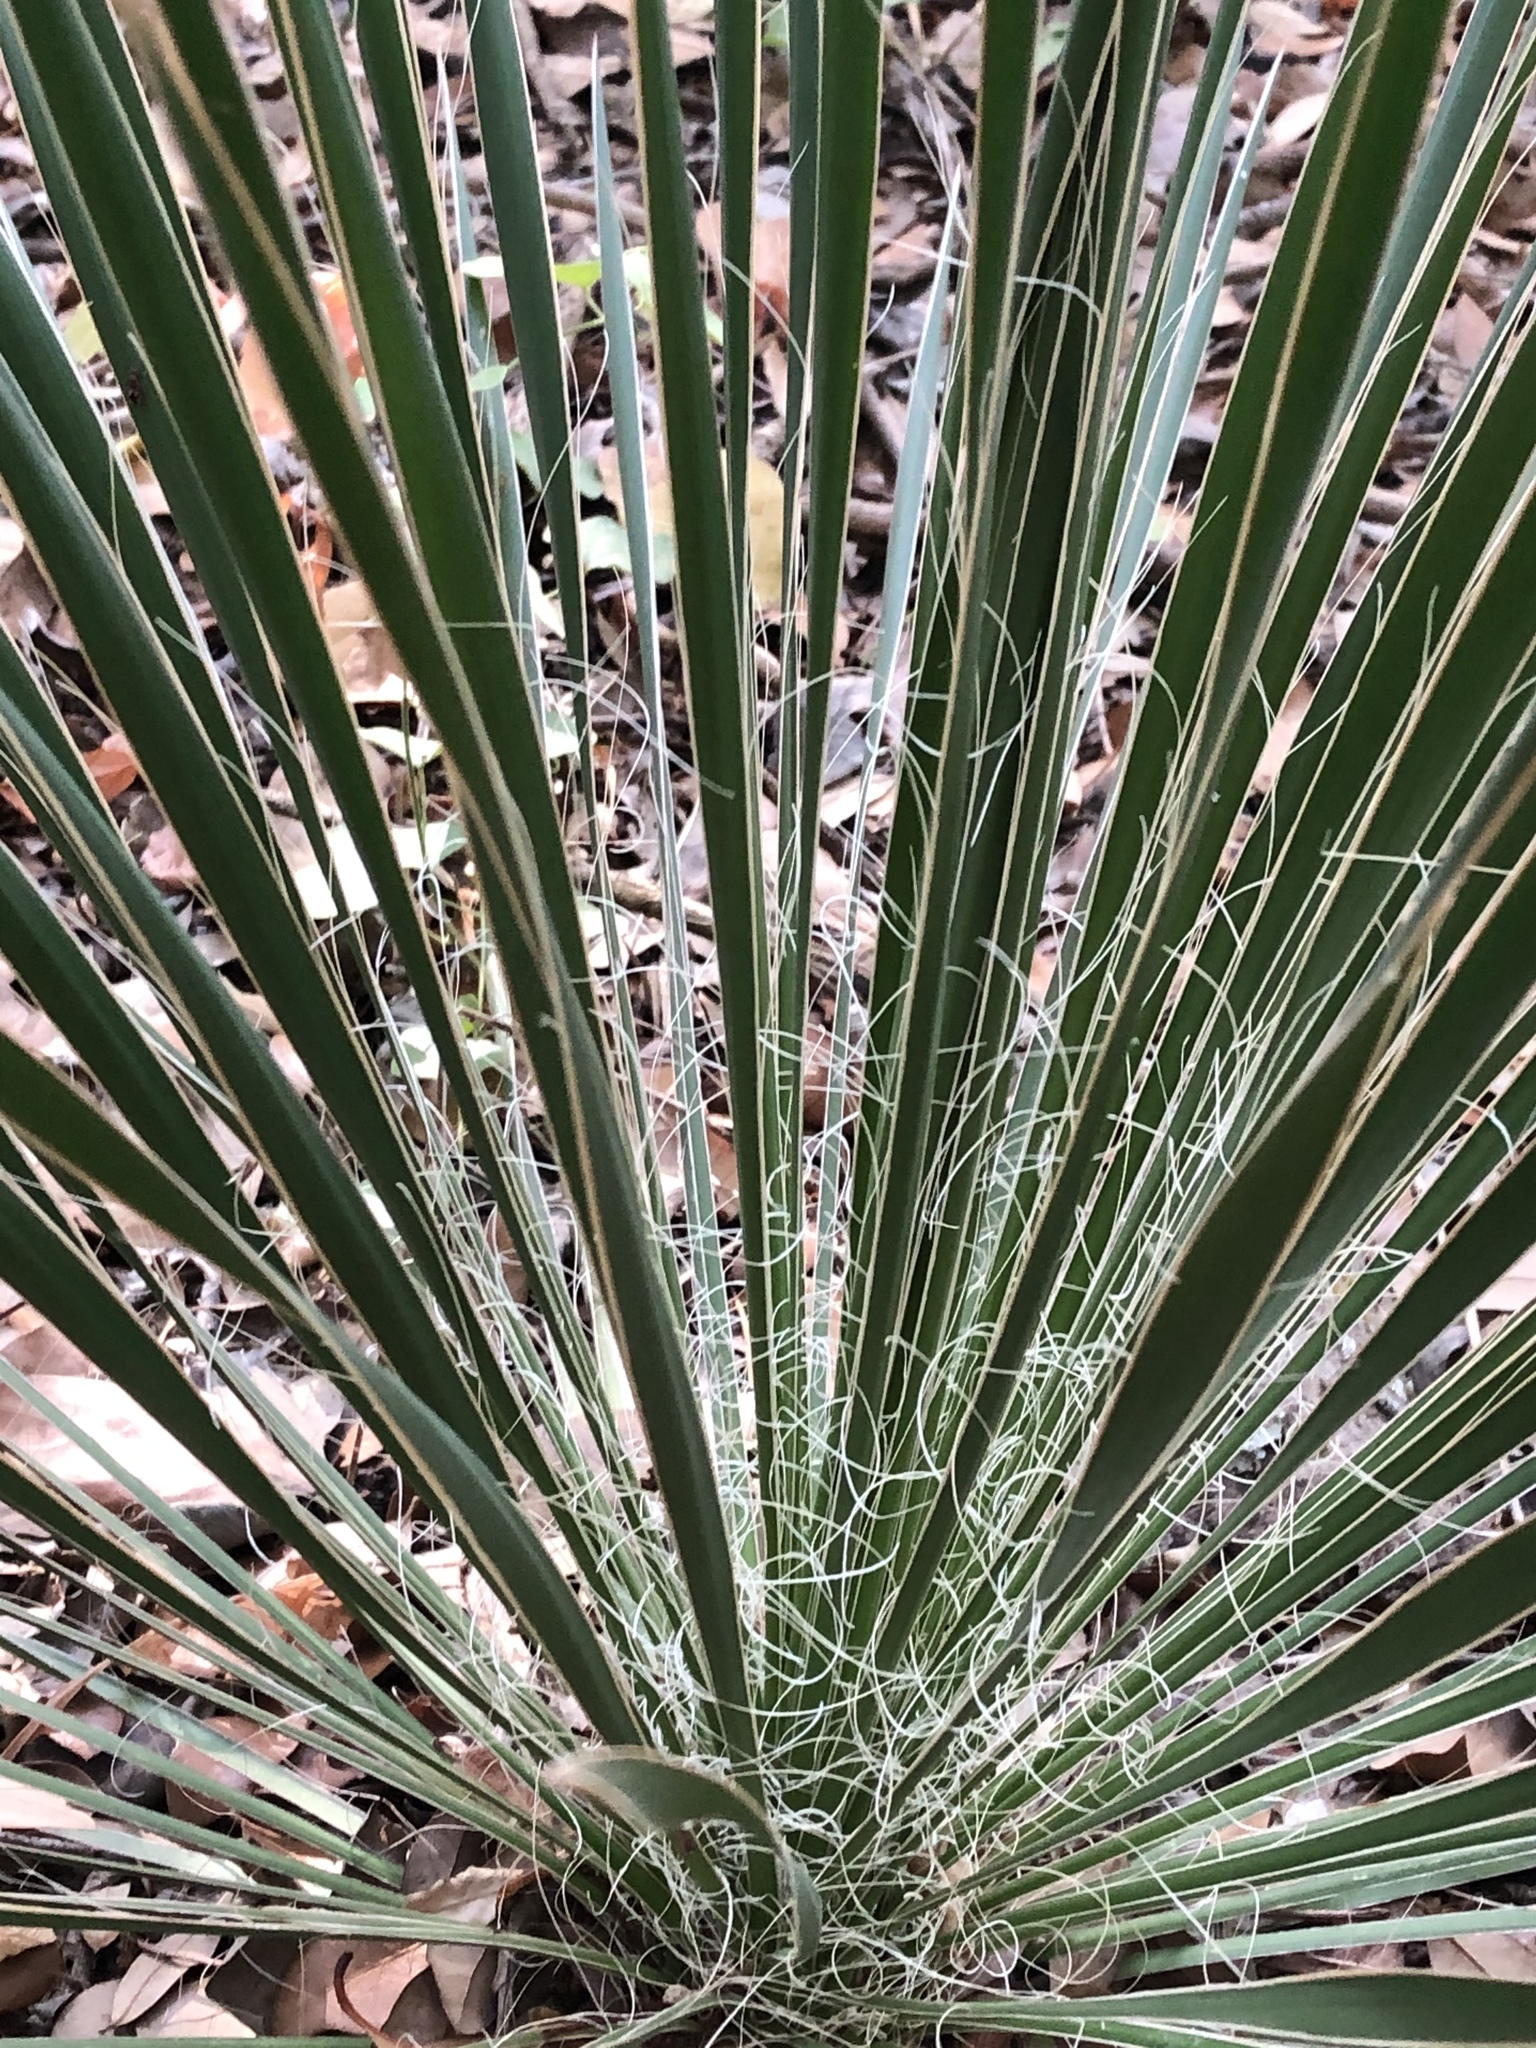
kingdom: Plantae
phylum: Tracheophyta
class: Liliopsida
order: Asparagales
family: Asparagaceae
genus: Yucca
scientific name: Yucca constricta
